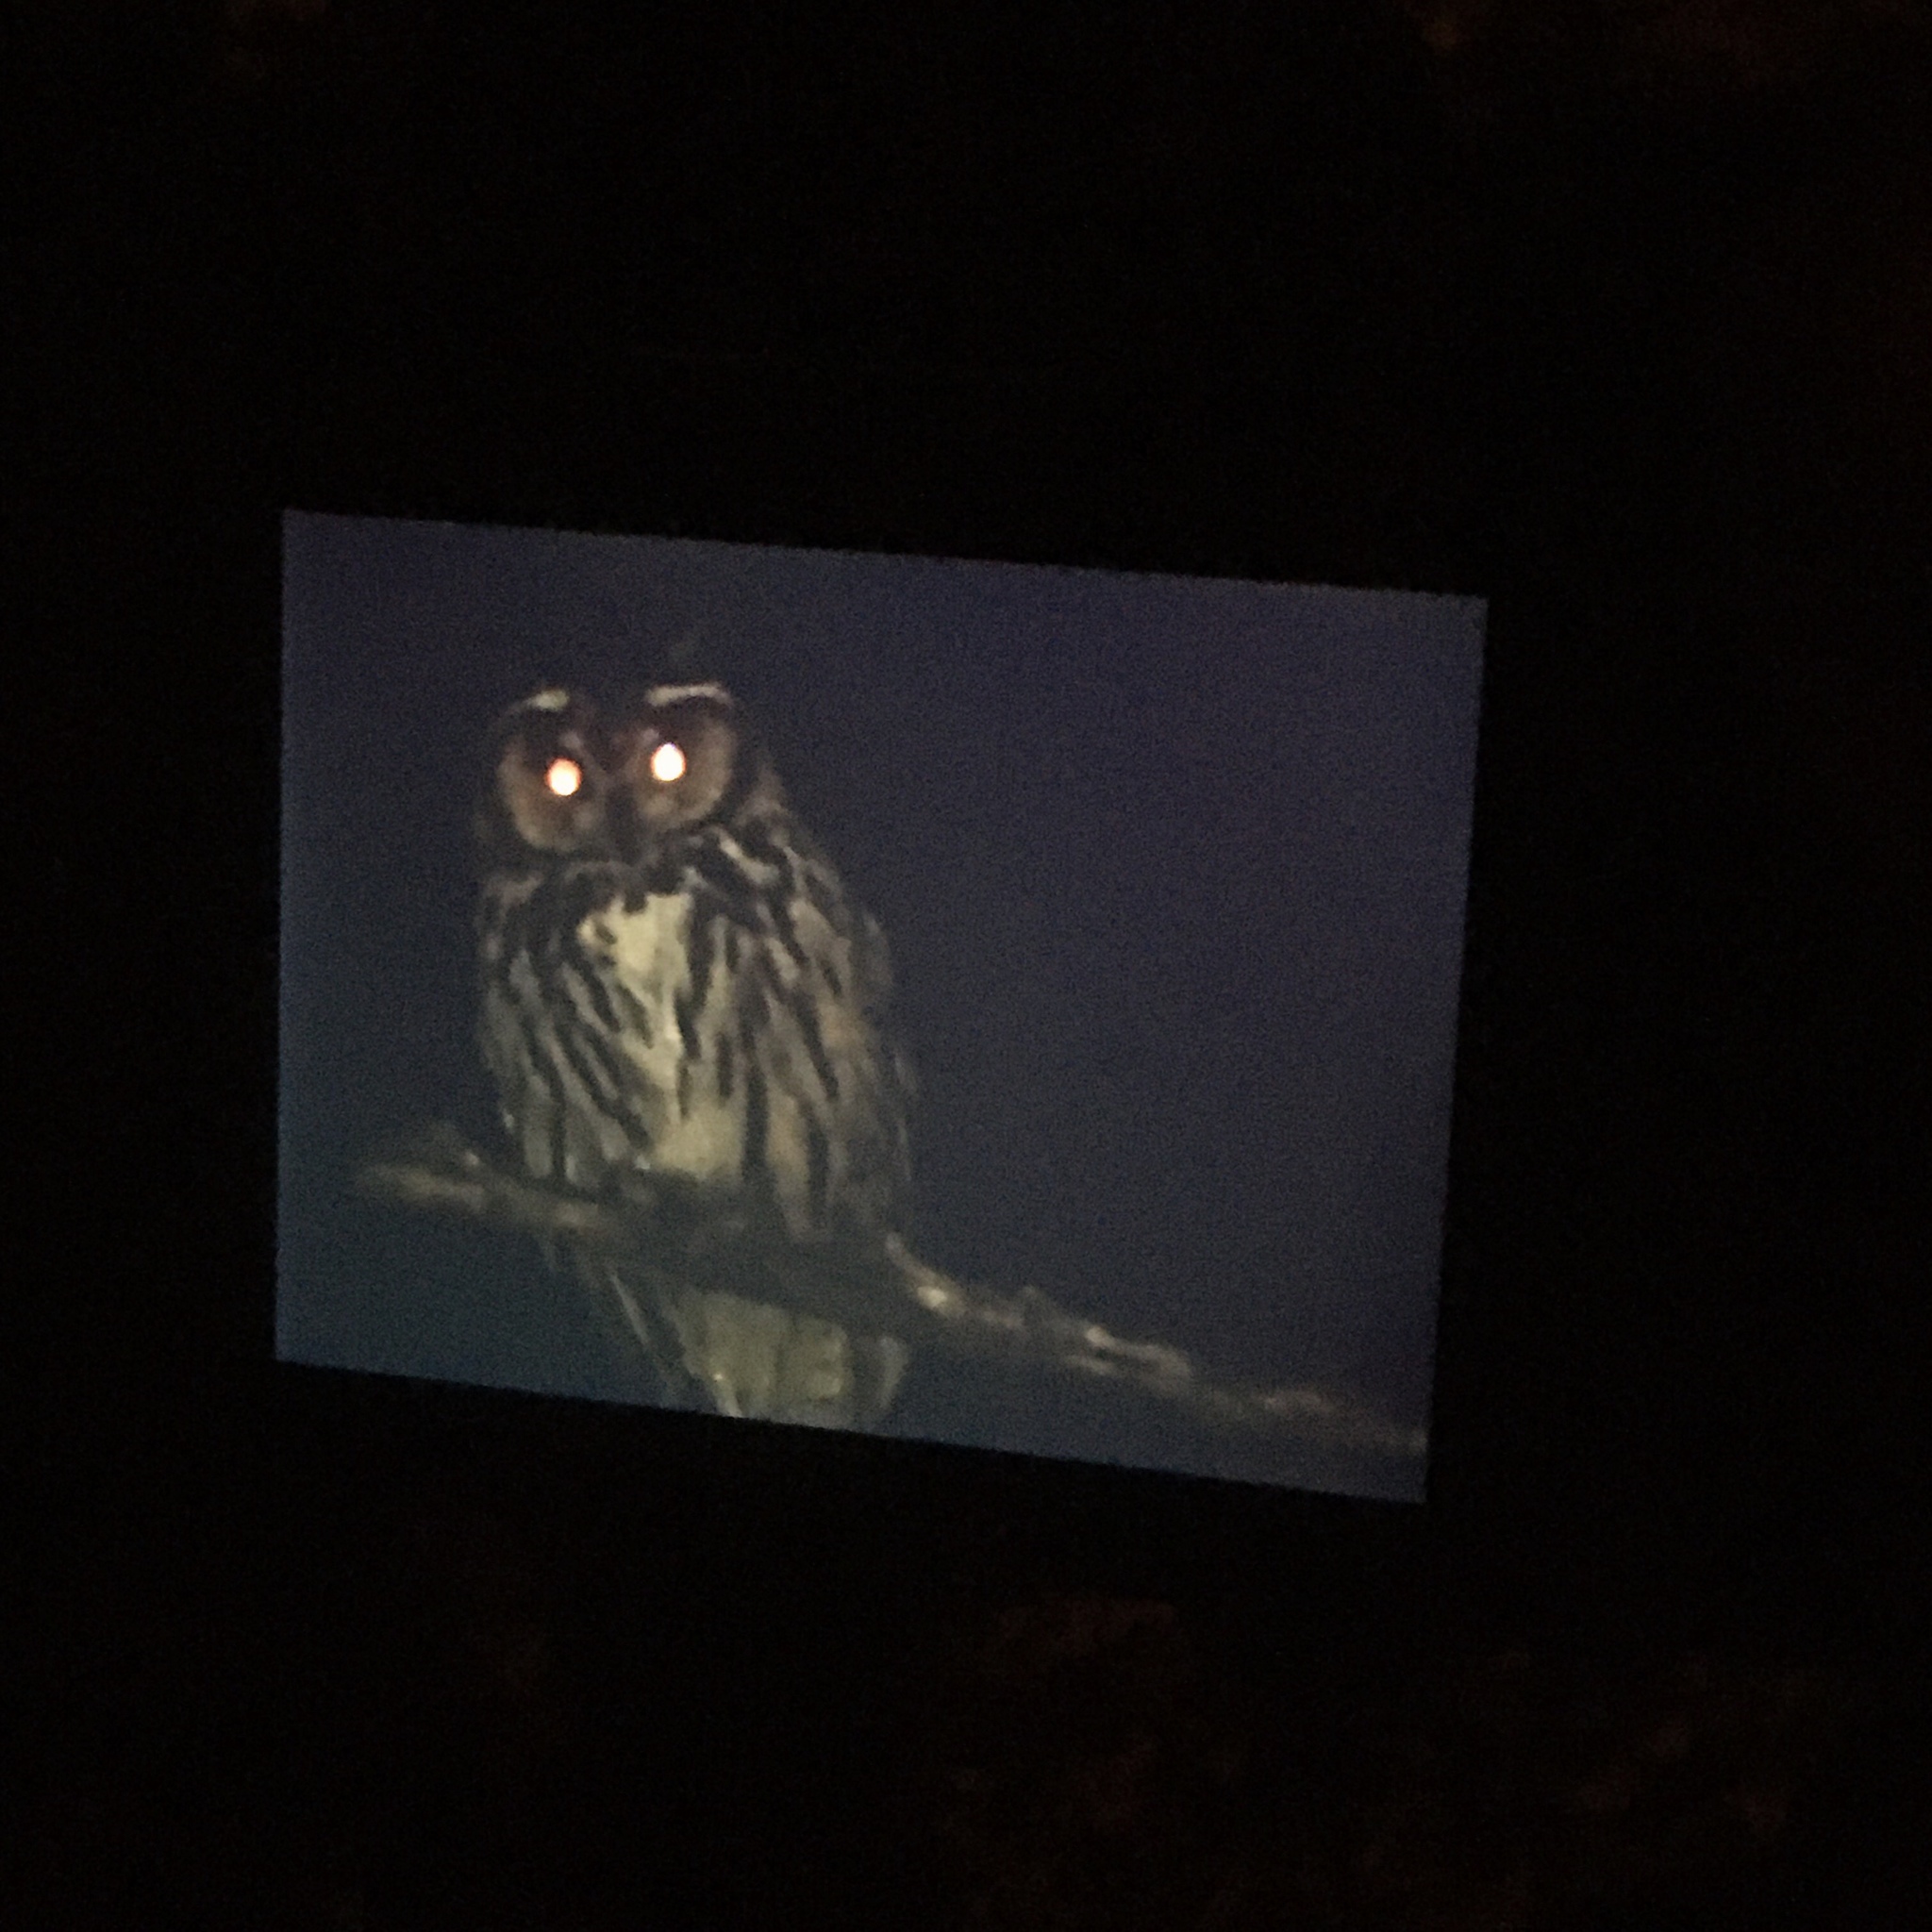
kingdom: Animalia
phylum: Chordata
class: Aves
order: Strigiformes
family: Strigidae
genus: Pseudoscops
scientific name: Pseudoscops clamator
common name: Striped owl
